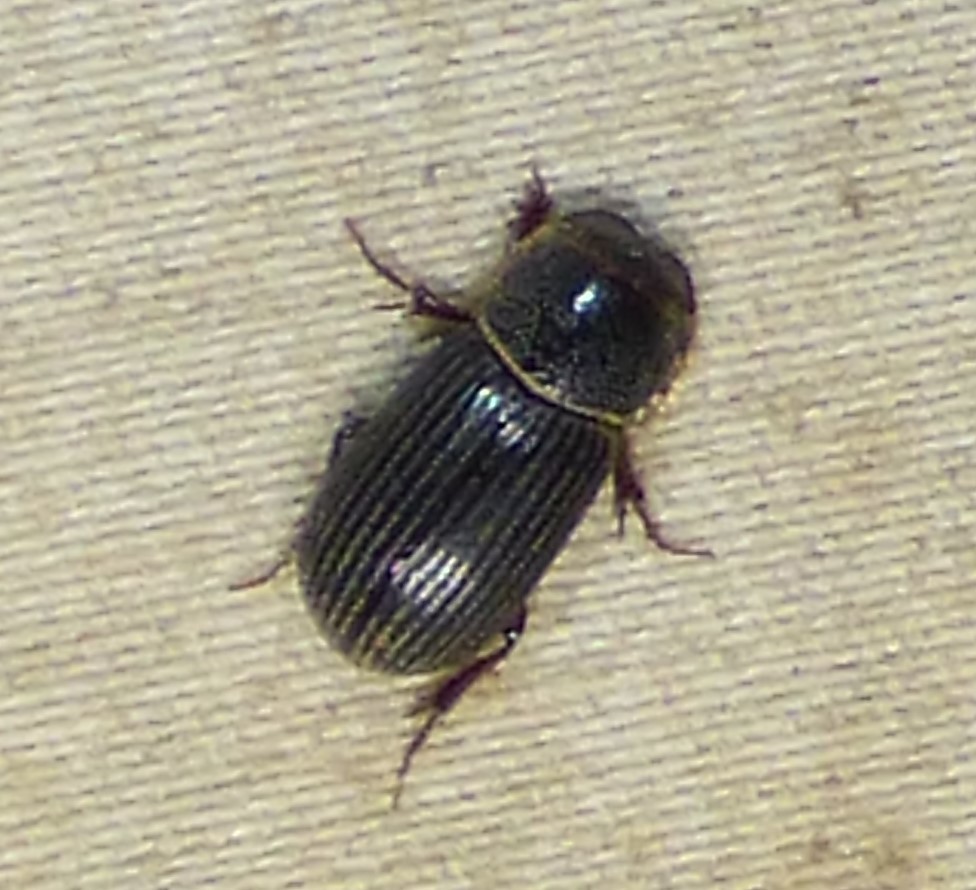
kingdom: Animalia
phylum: Arthropoda
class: Insecta
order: Coleoptera
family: Scarabaeidae
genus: Martineziana
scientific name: Martineziana dutertrei
